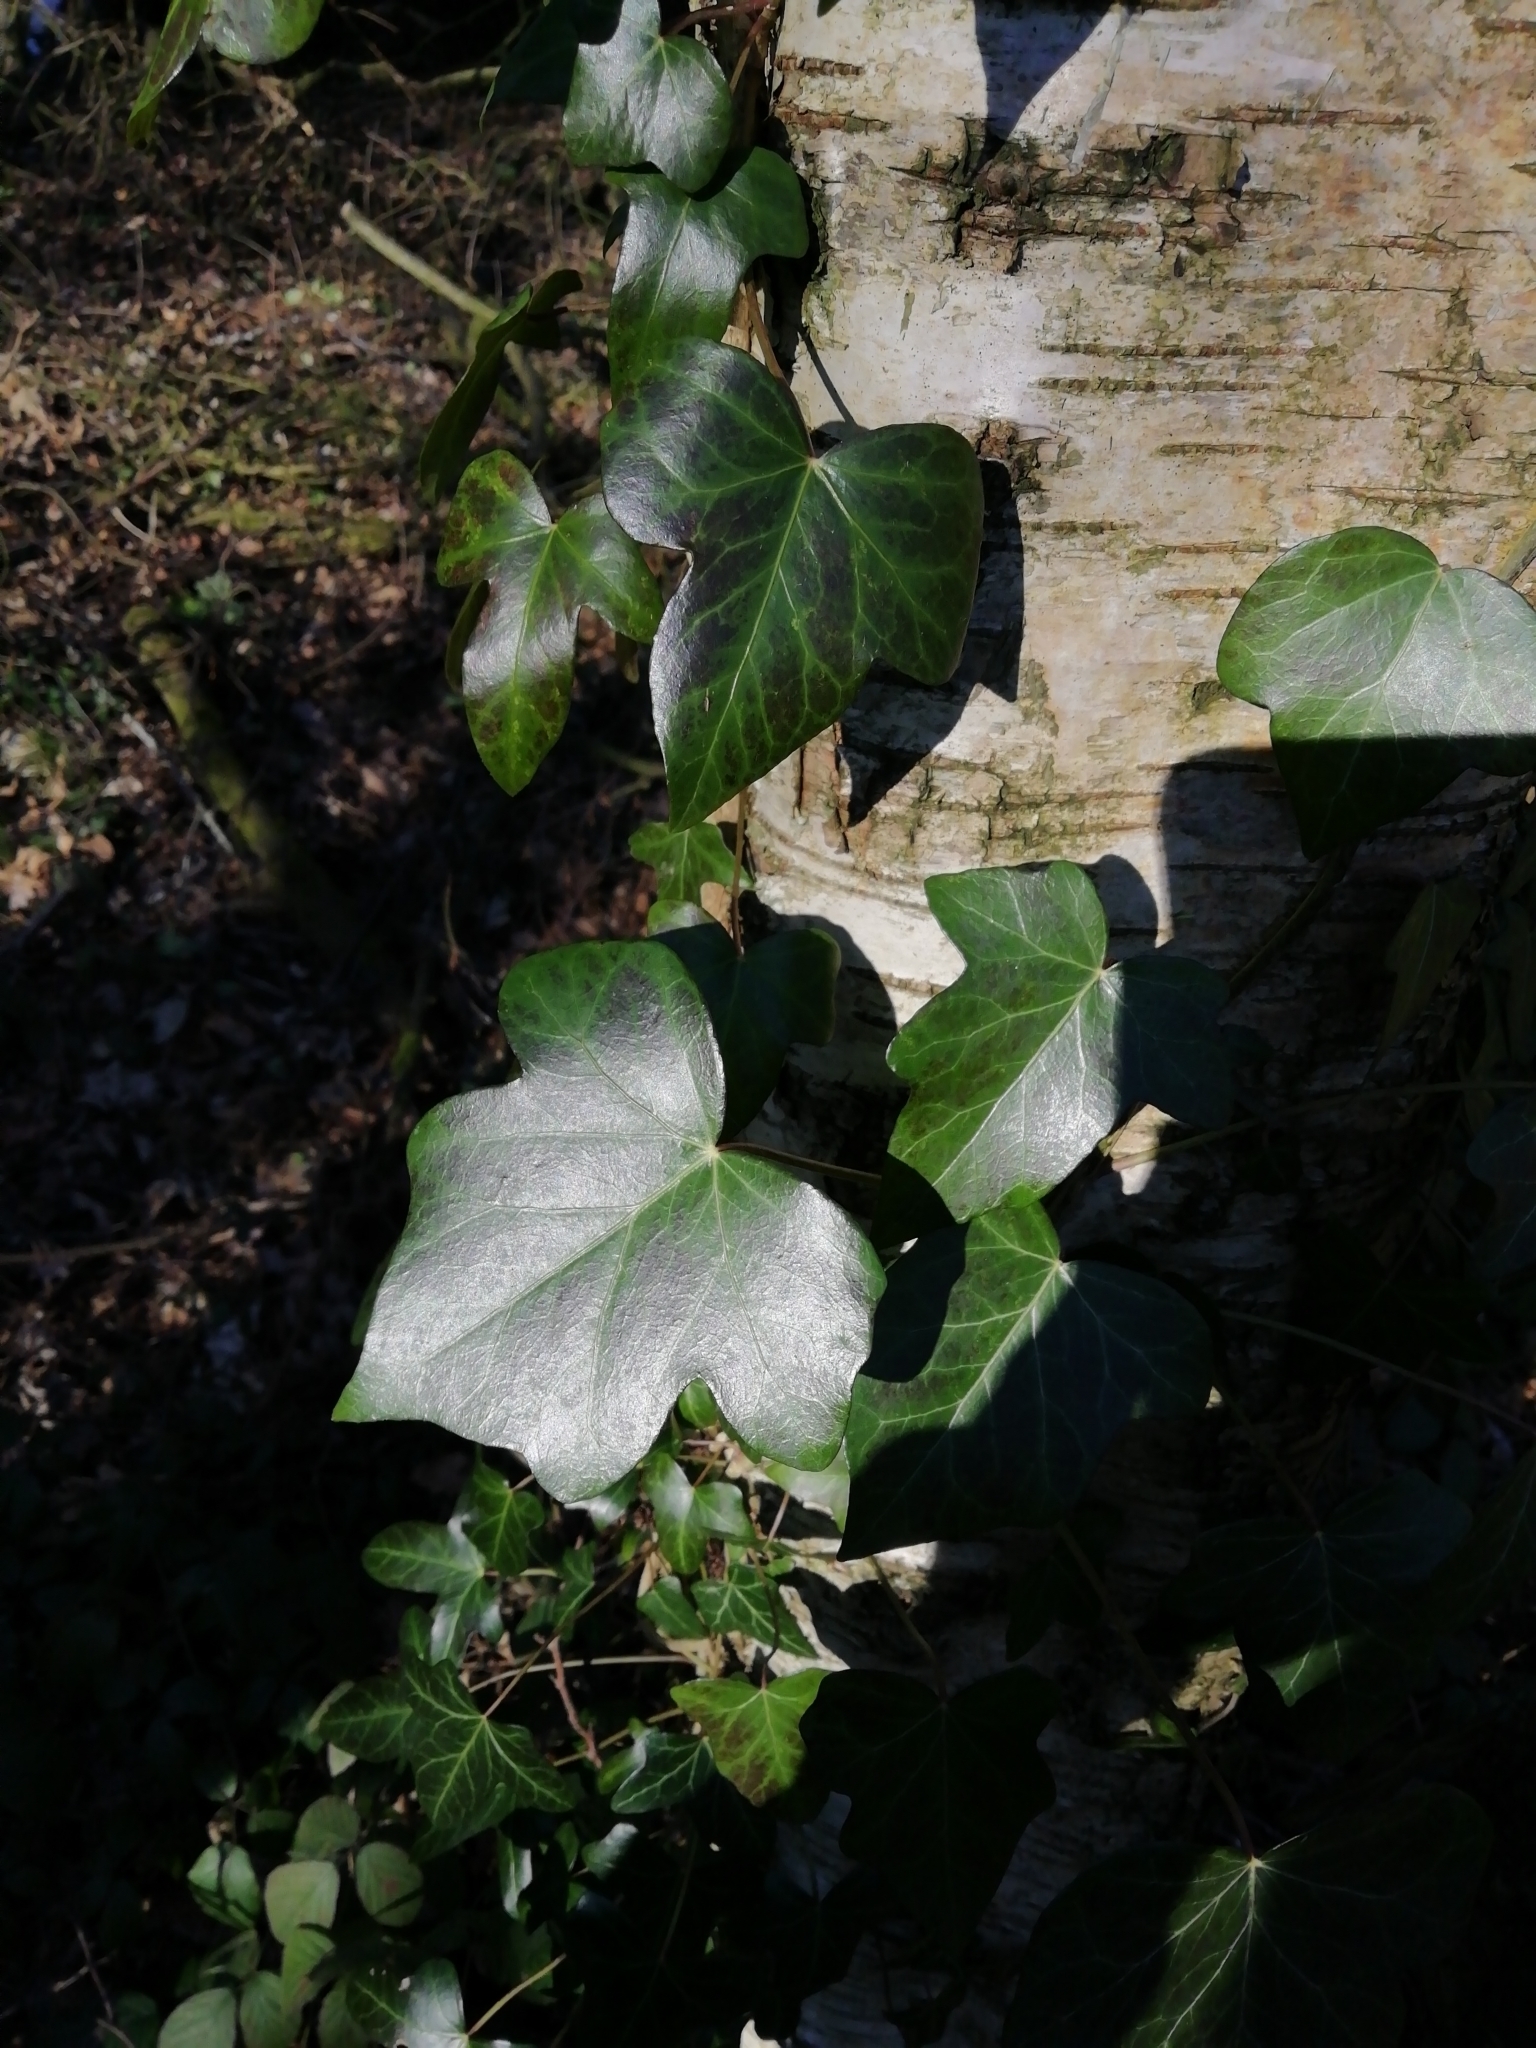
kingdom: Plantae
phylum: Tracheophyta
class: Magnoliopsida
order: Apiales
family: Araliaceae
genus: Hedera
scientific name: Hedera helix
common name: Ivy
